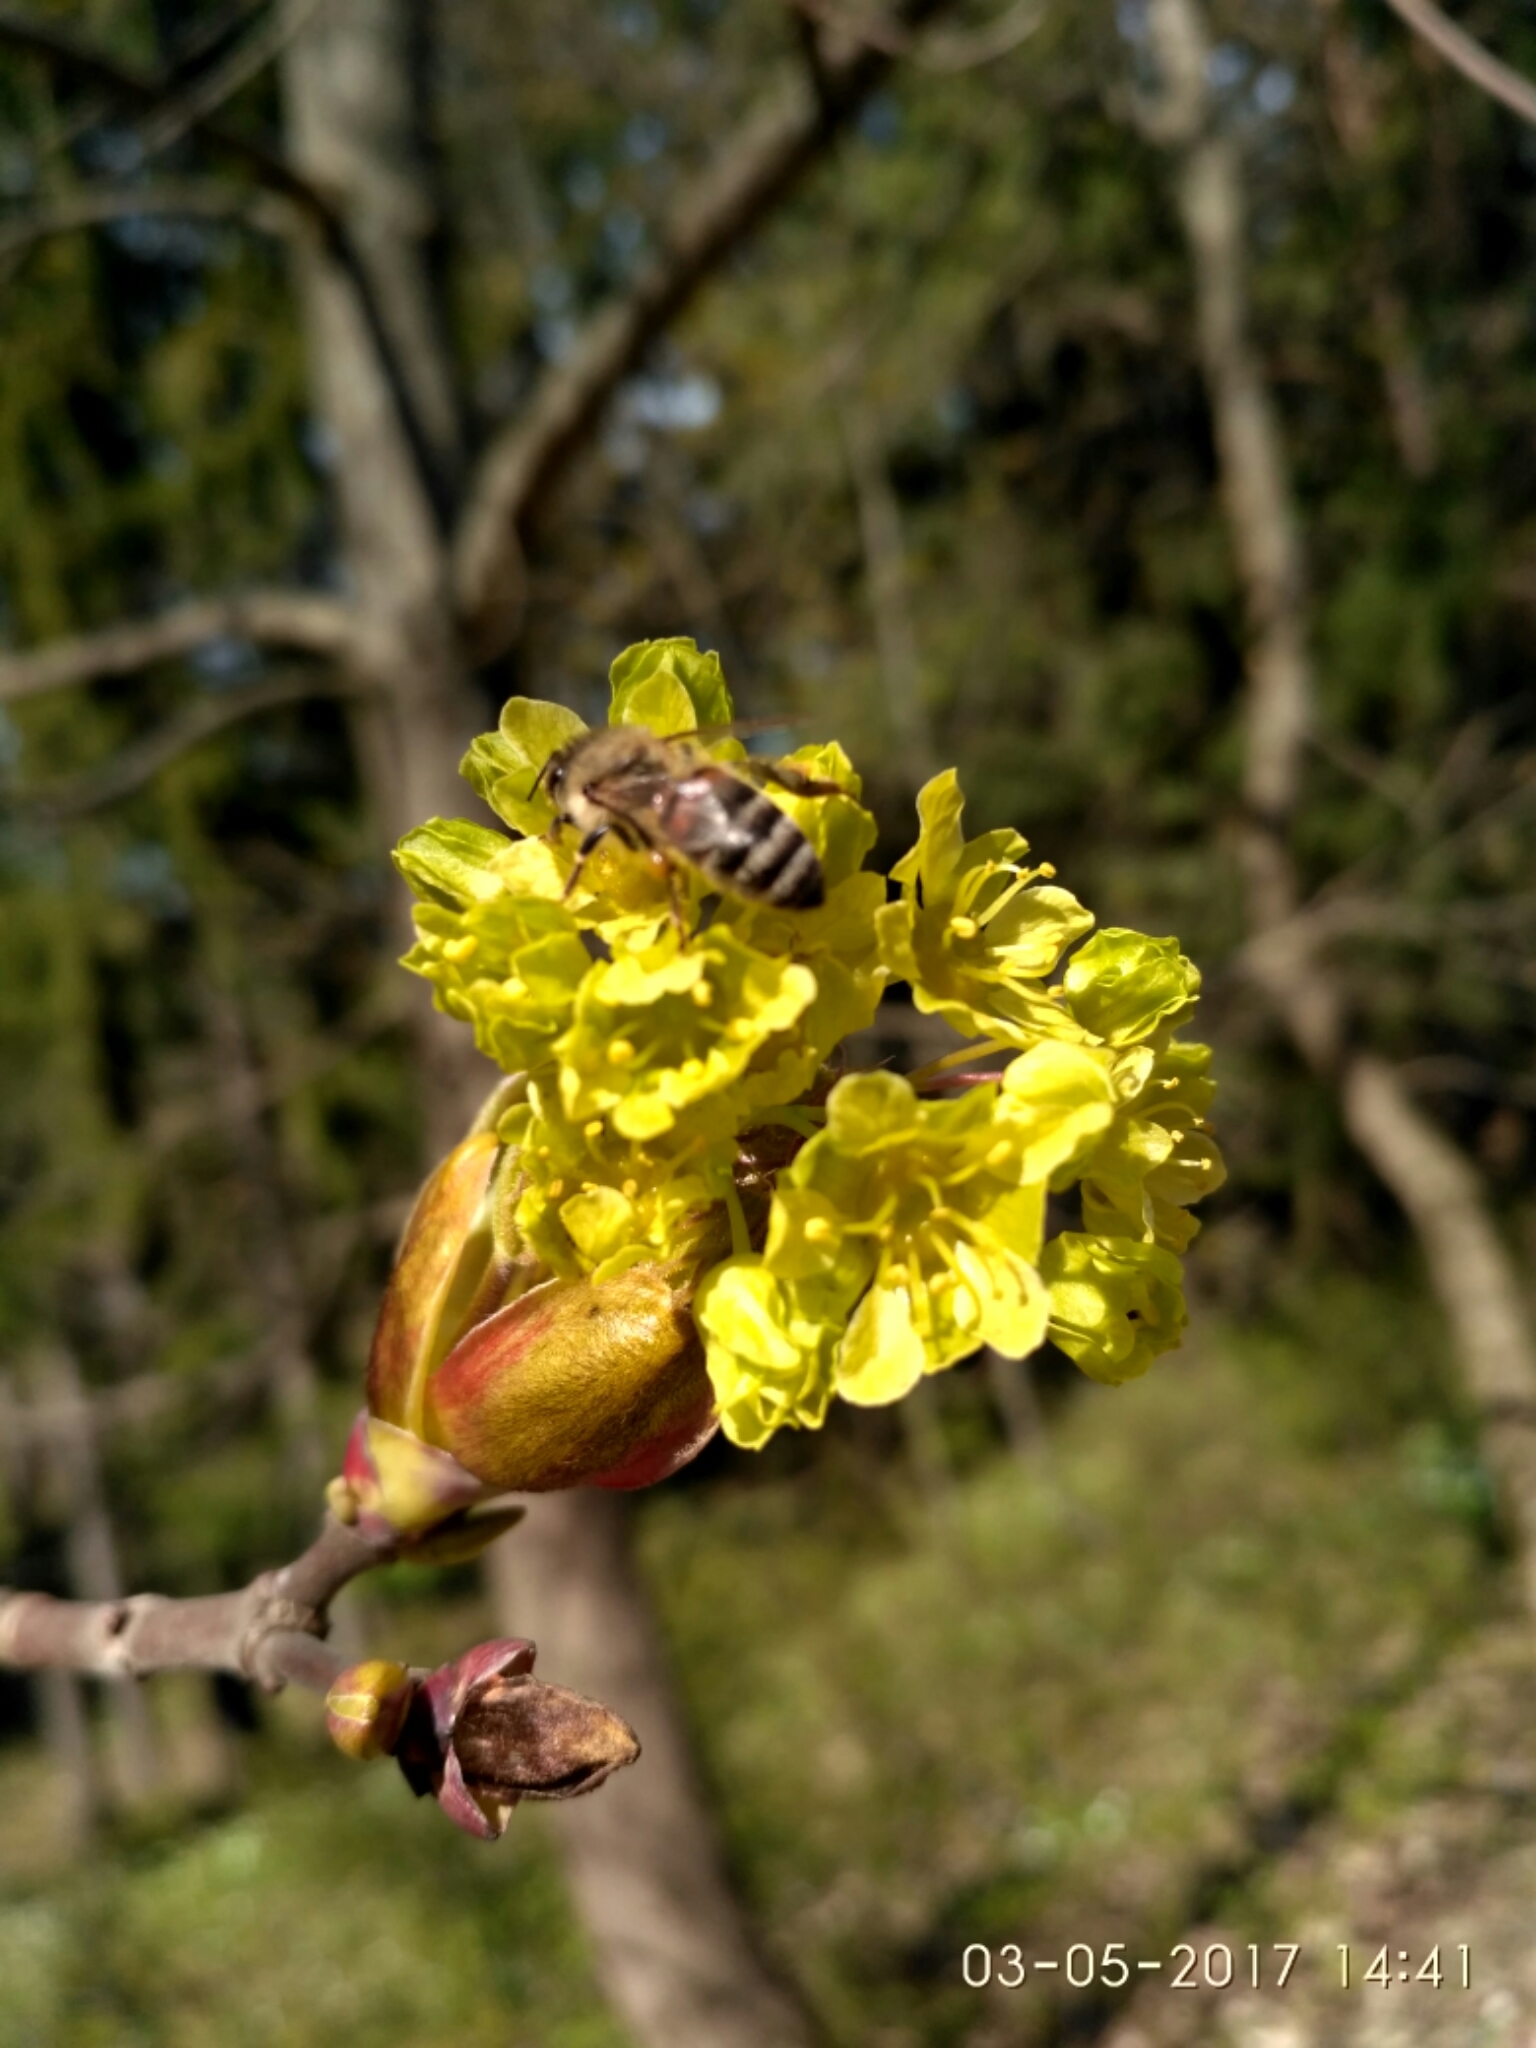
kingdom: Plantae
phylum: Tracheophyta
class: Magnoliopsida
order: Sapindales
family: Sapindaceae
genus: Acer
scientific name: Acer platanoides
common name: Norway maple
